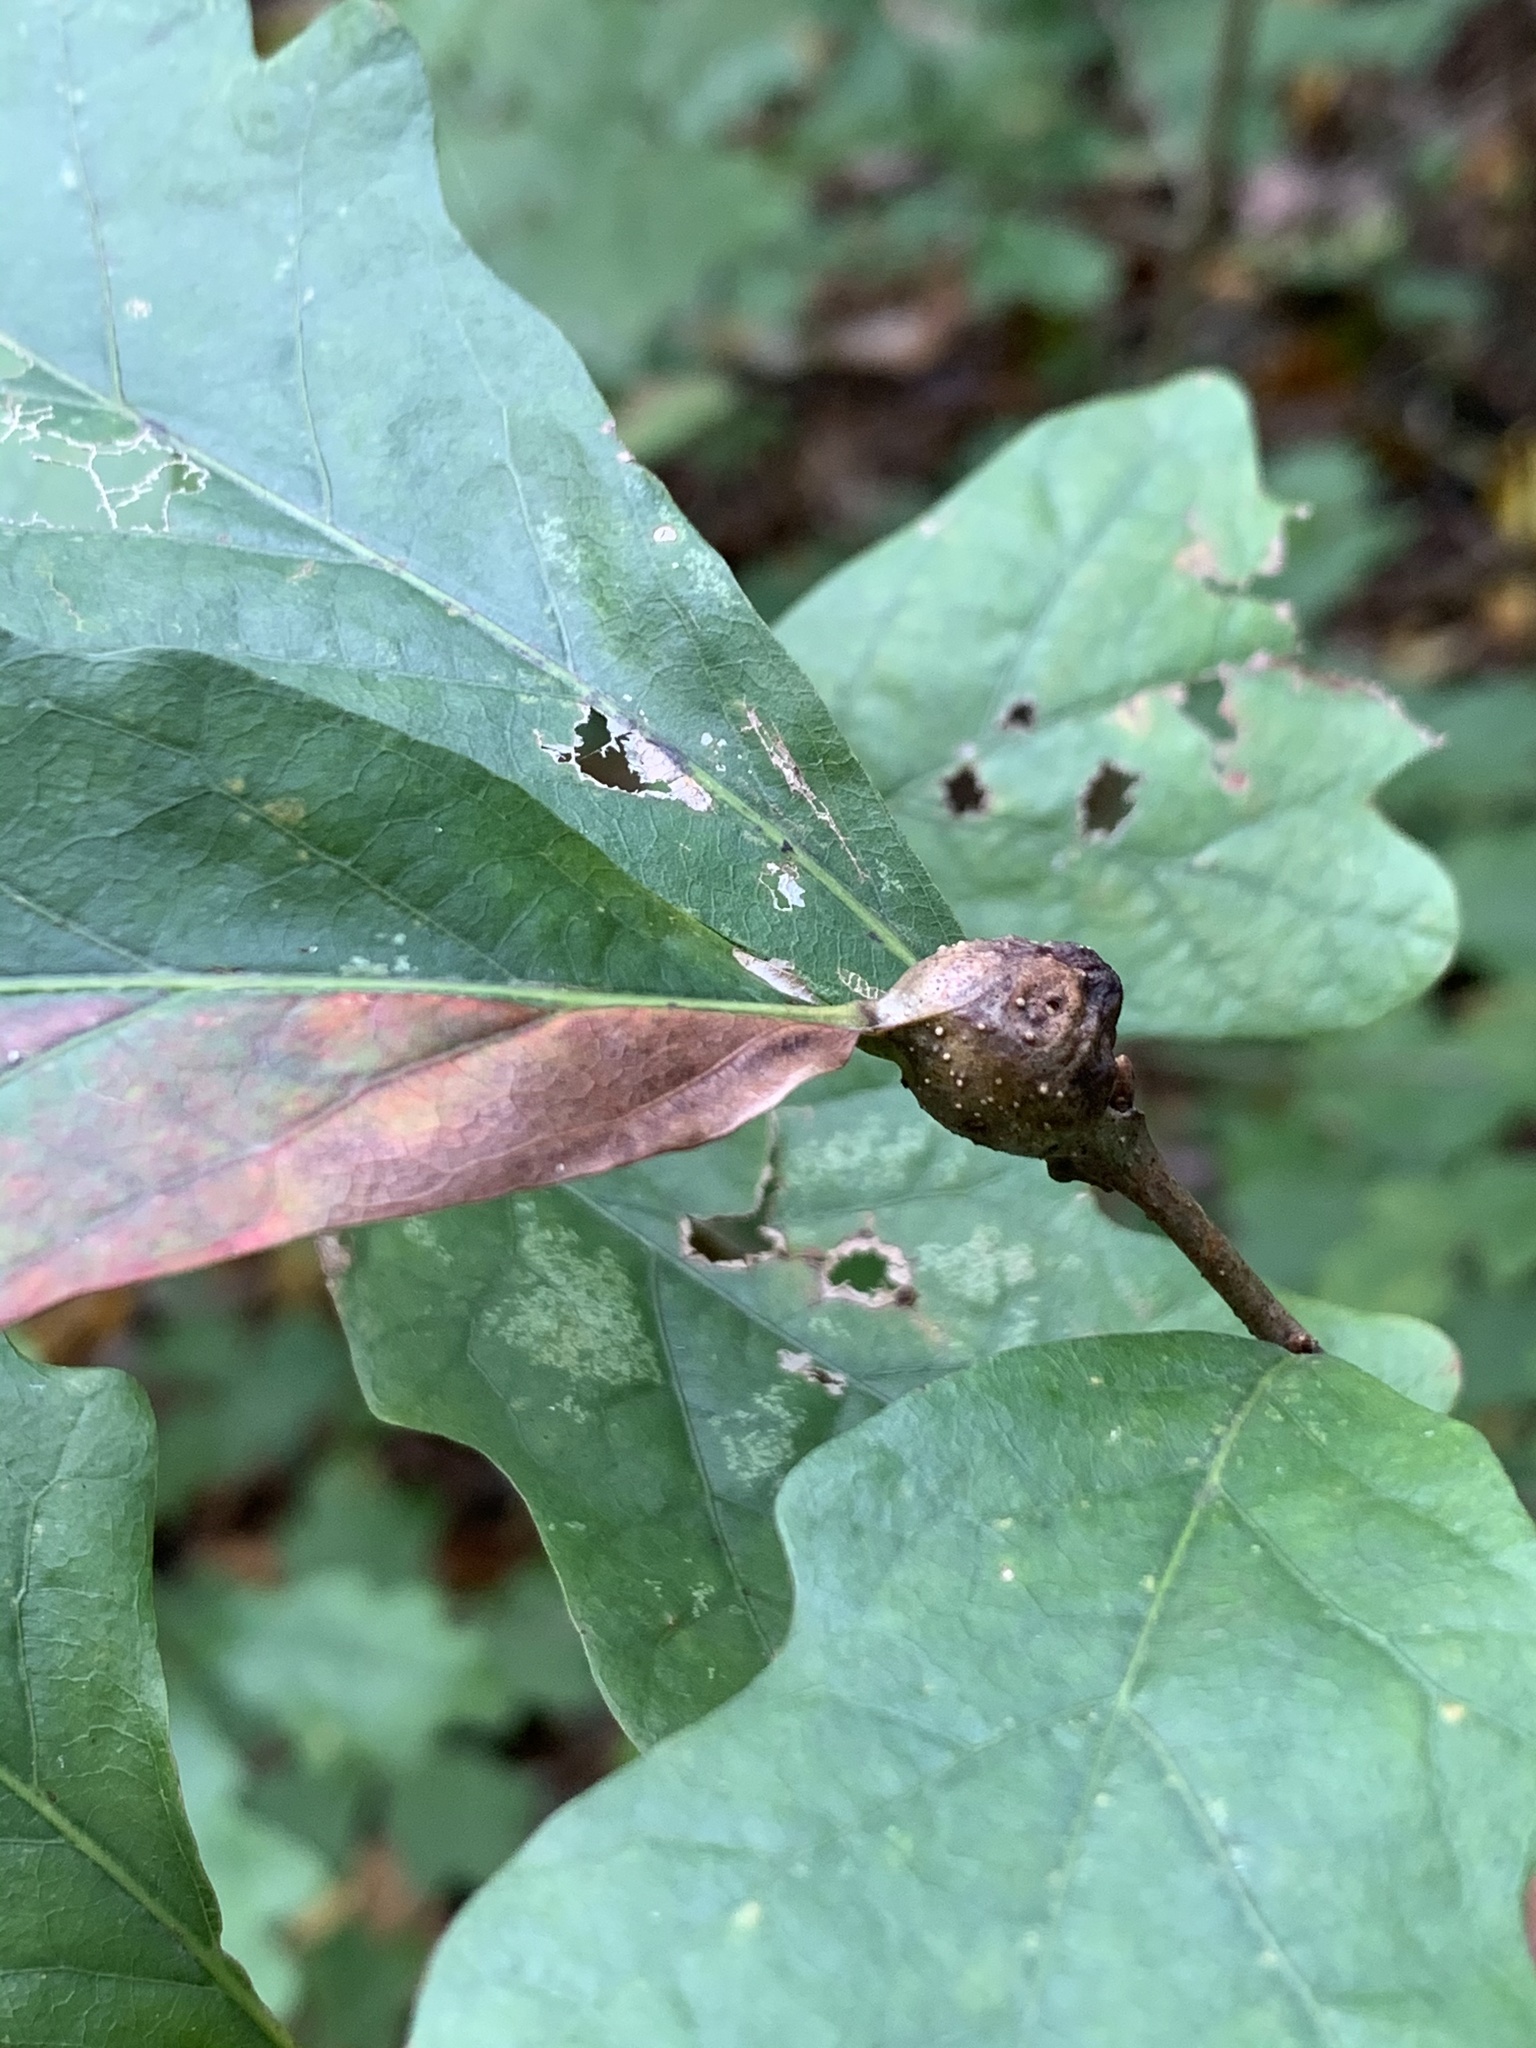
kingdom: Animalia
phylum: Arthropoda
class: Insecta
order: Hymenoptera
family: Cynipidae
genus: Andricus
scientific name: Andricus
